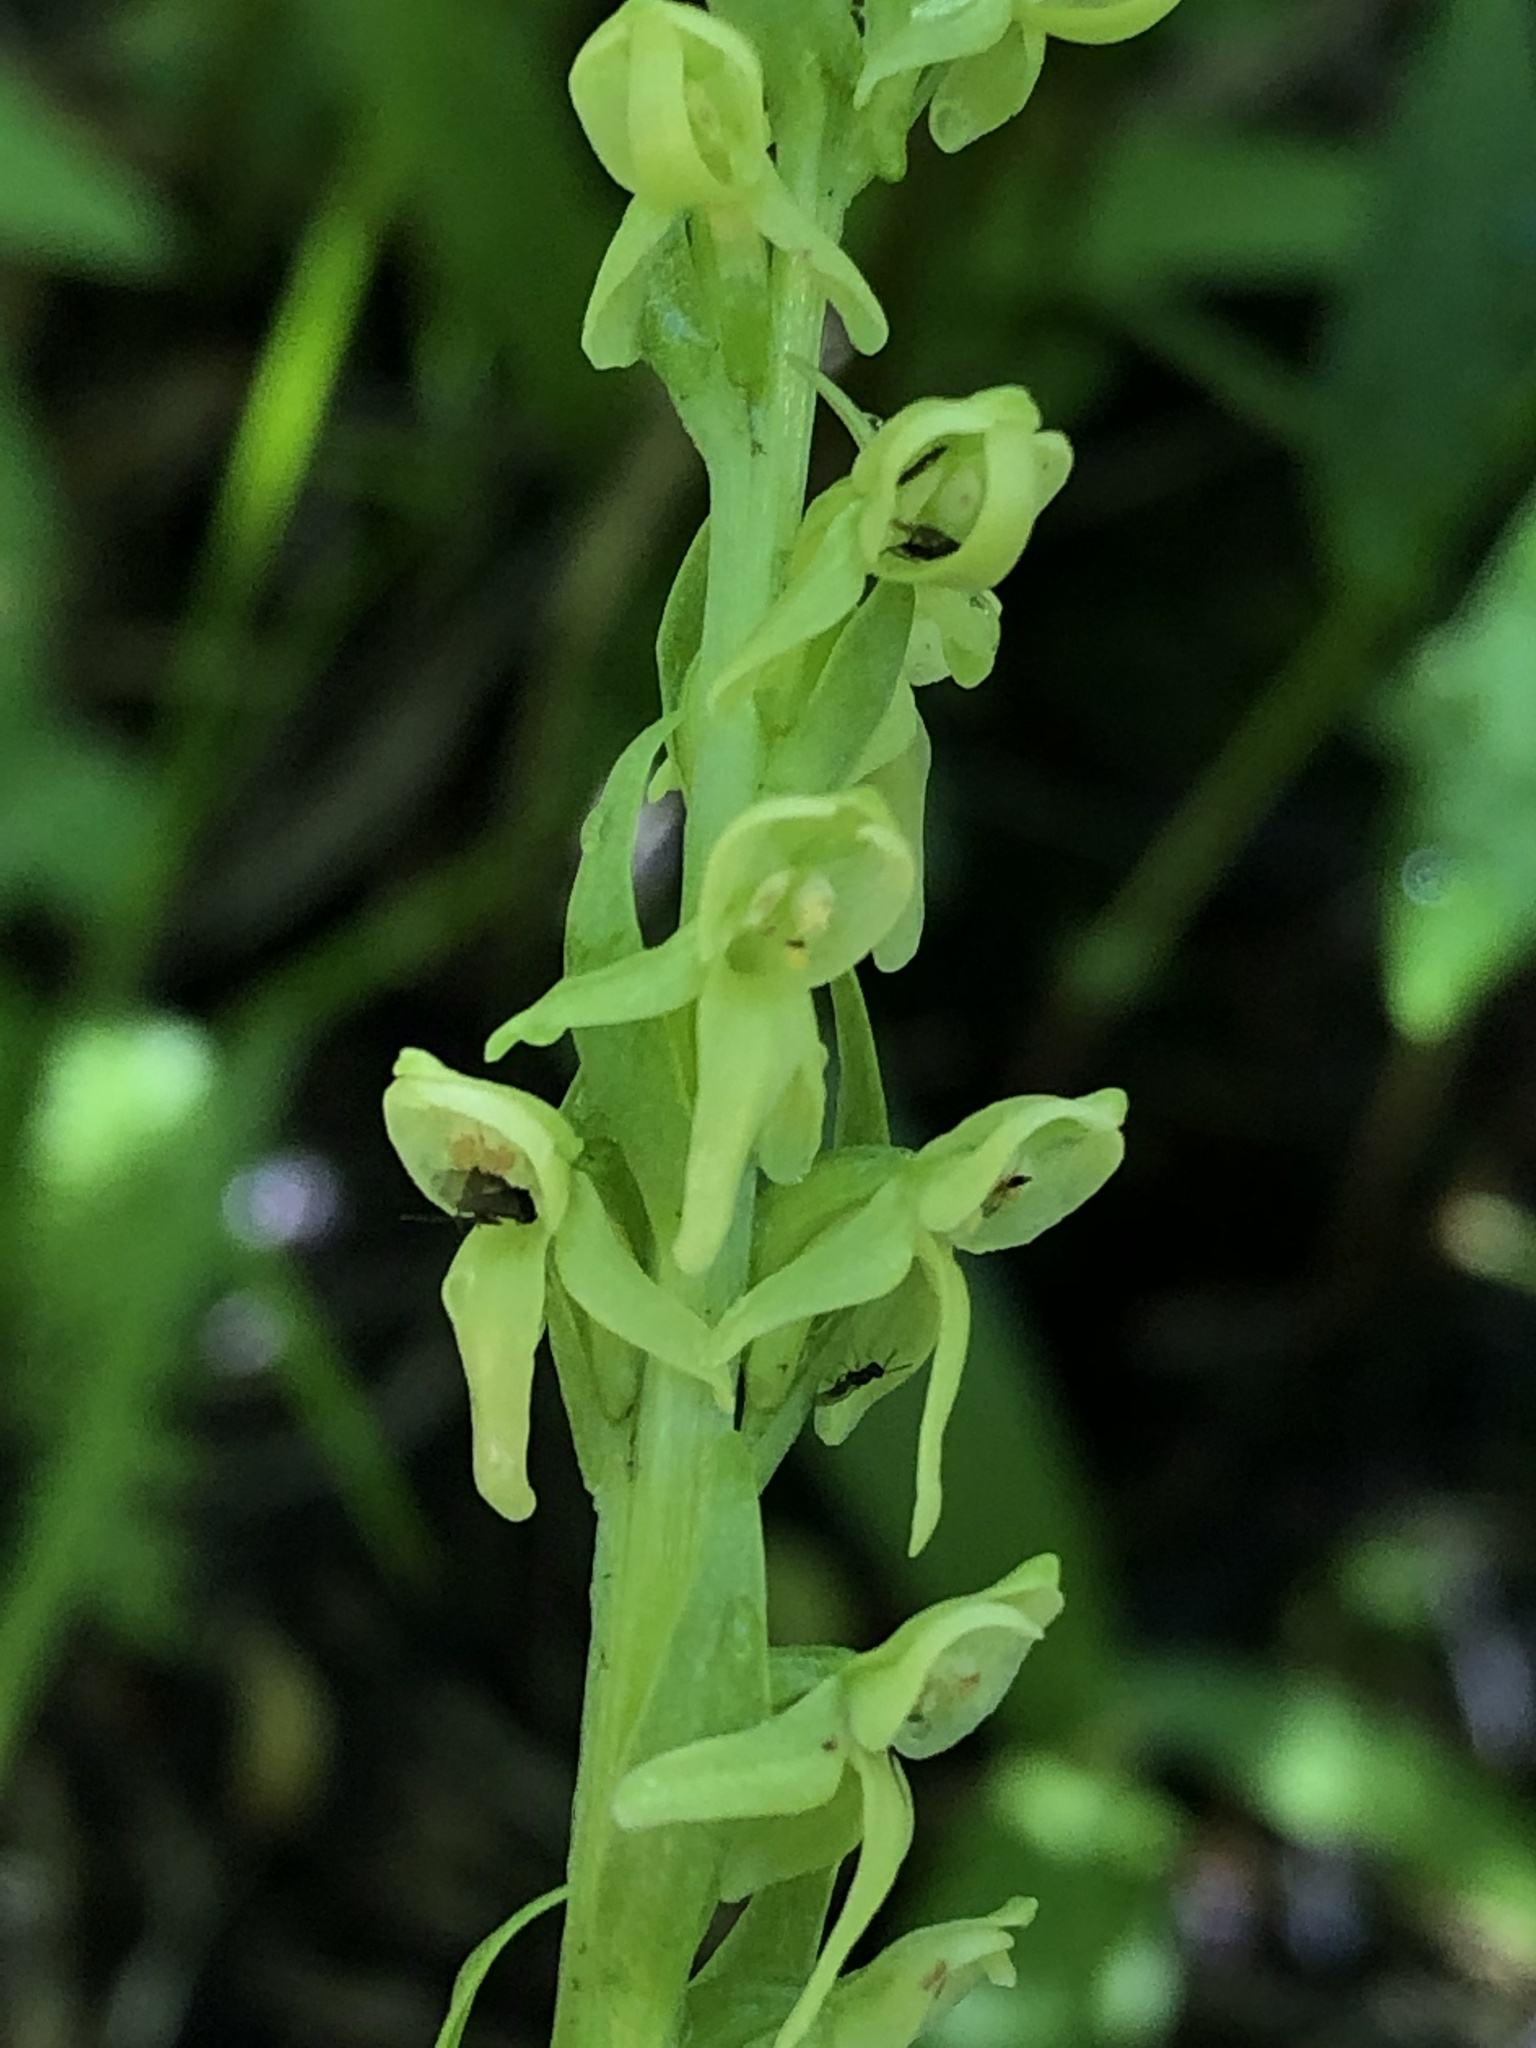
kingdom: Plantae
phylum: Tracheophyta
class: Liliopsida
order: Asparagales
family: Orchidaceae
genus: Platanthera
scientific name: Platanthera huronensis
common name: Fragrant green orchid
